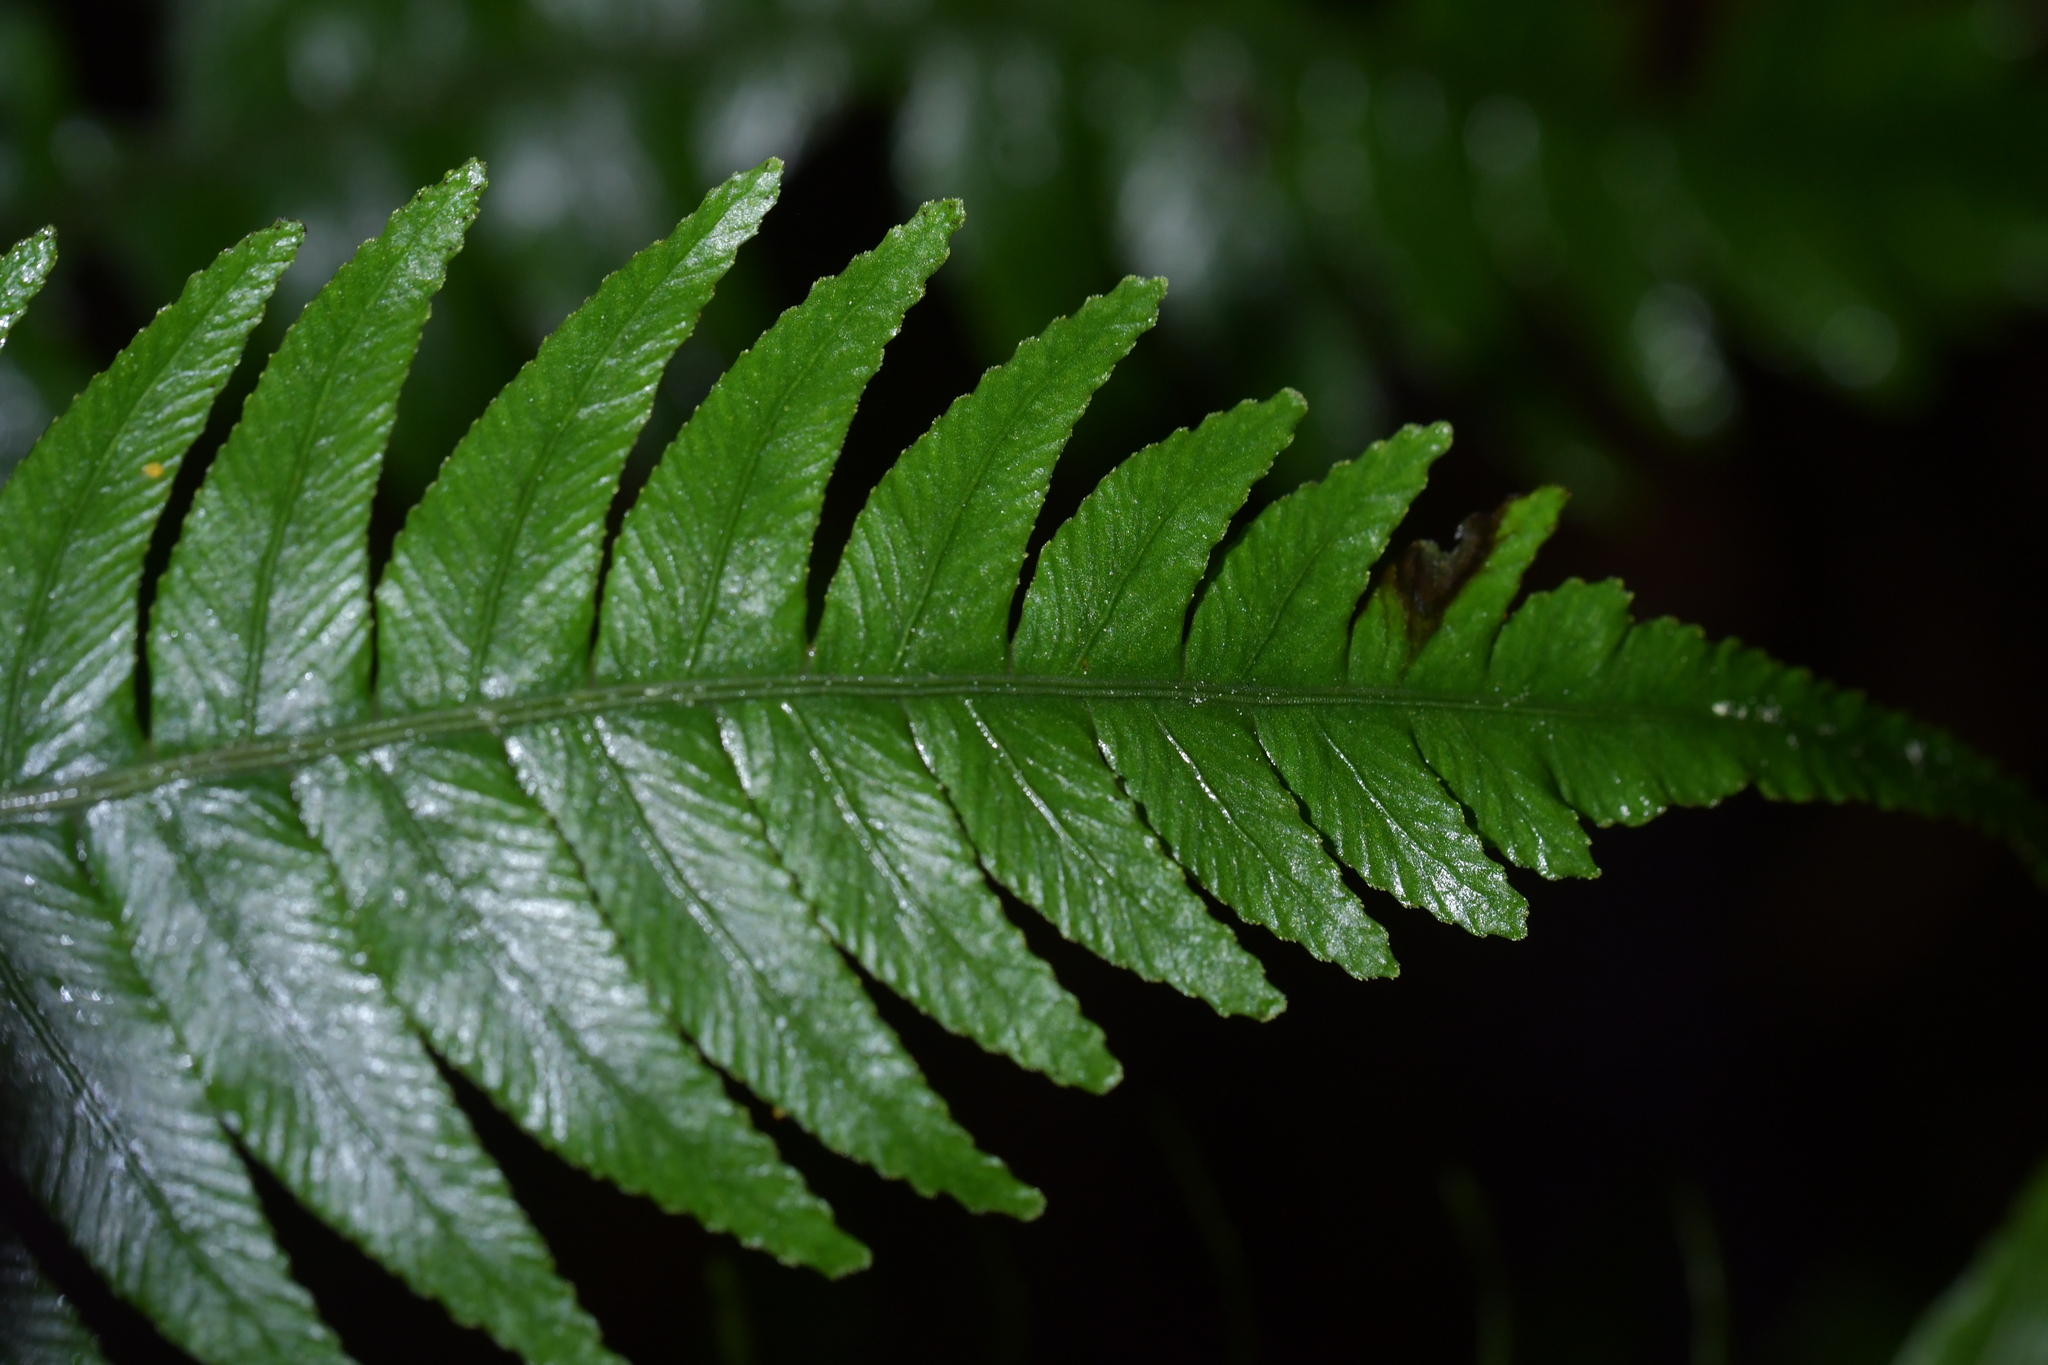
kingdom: Plantae
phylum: Tracheophyta
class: Polypodiopsida
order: Polypodiales
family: Blechnaceae
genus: Austroblechnum
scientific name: Austroblechnum lanceolatum
